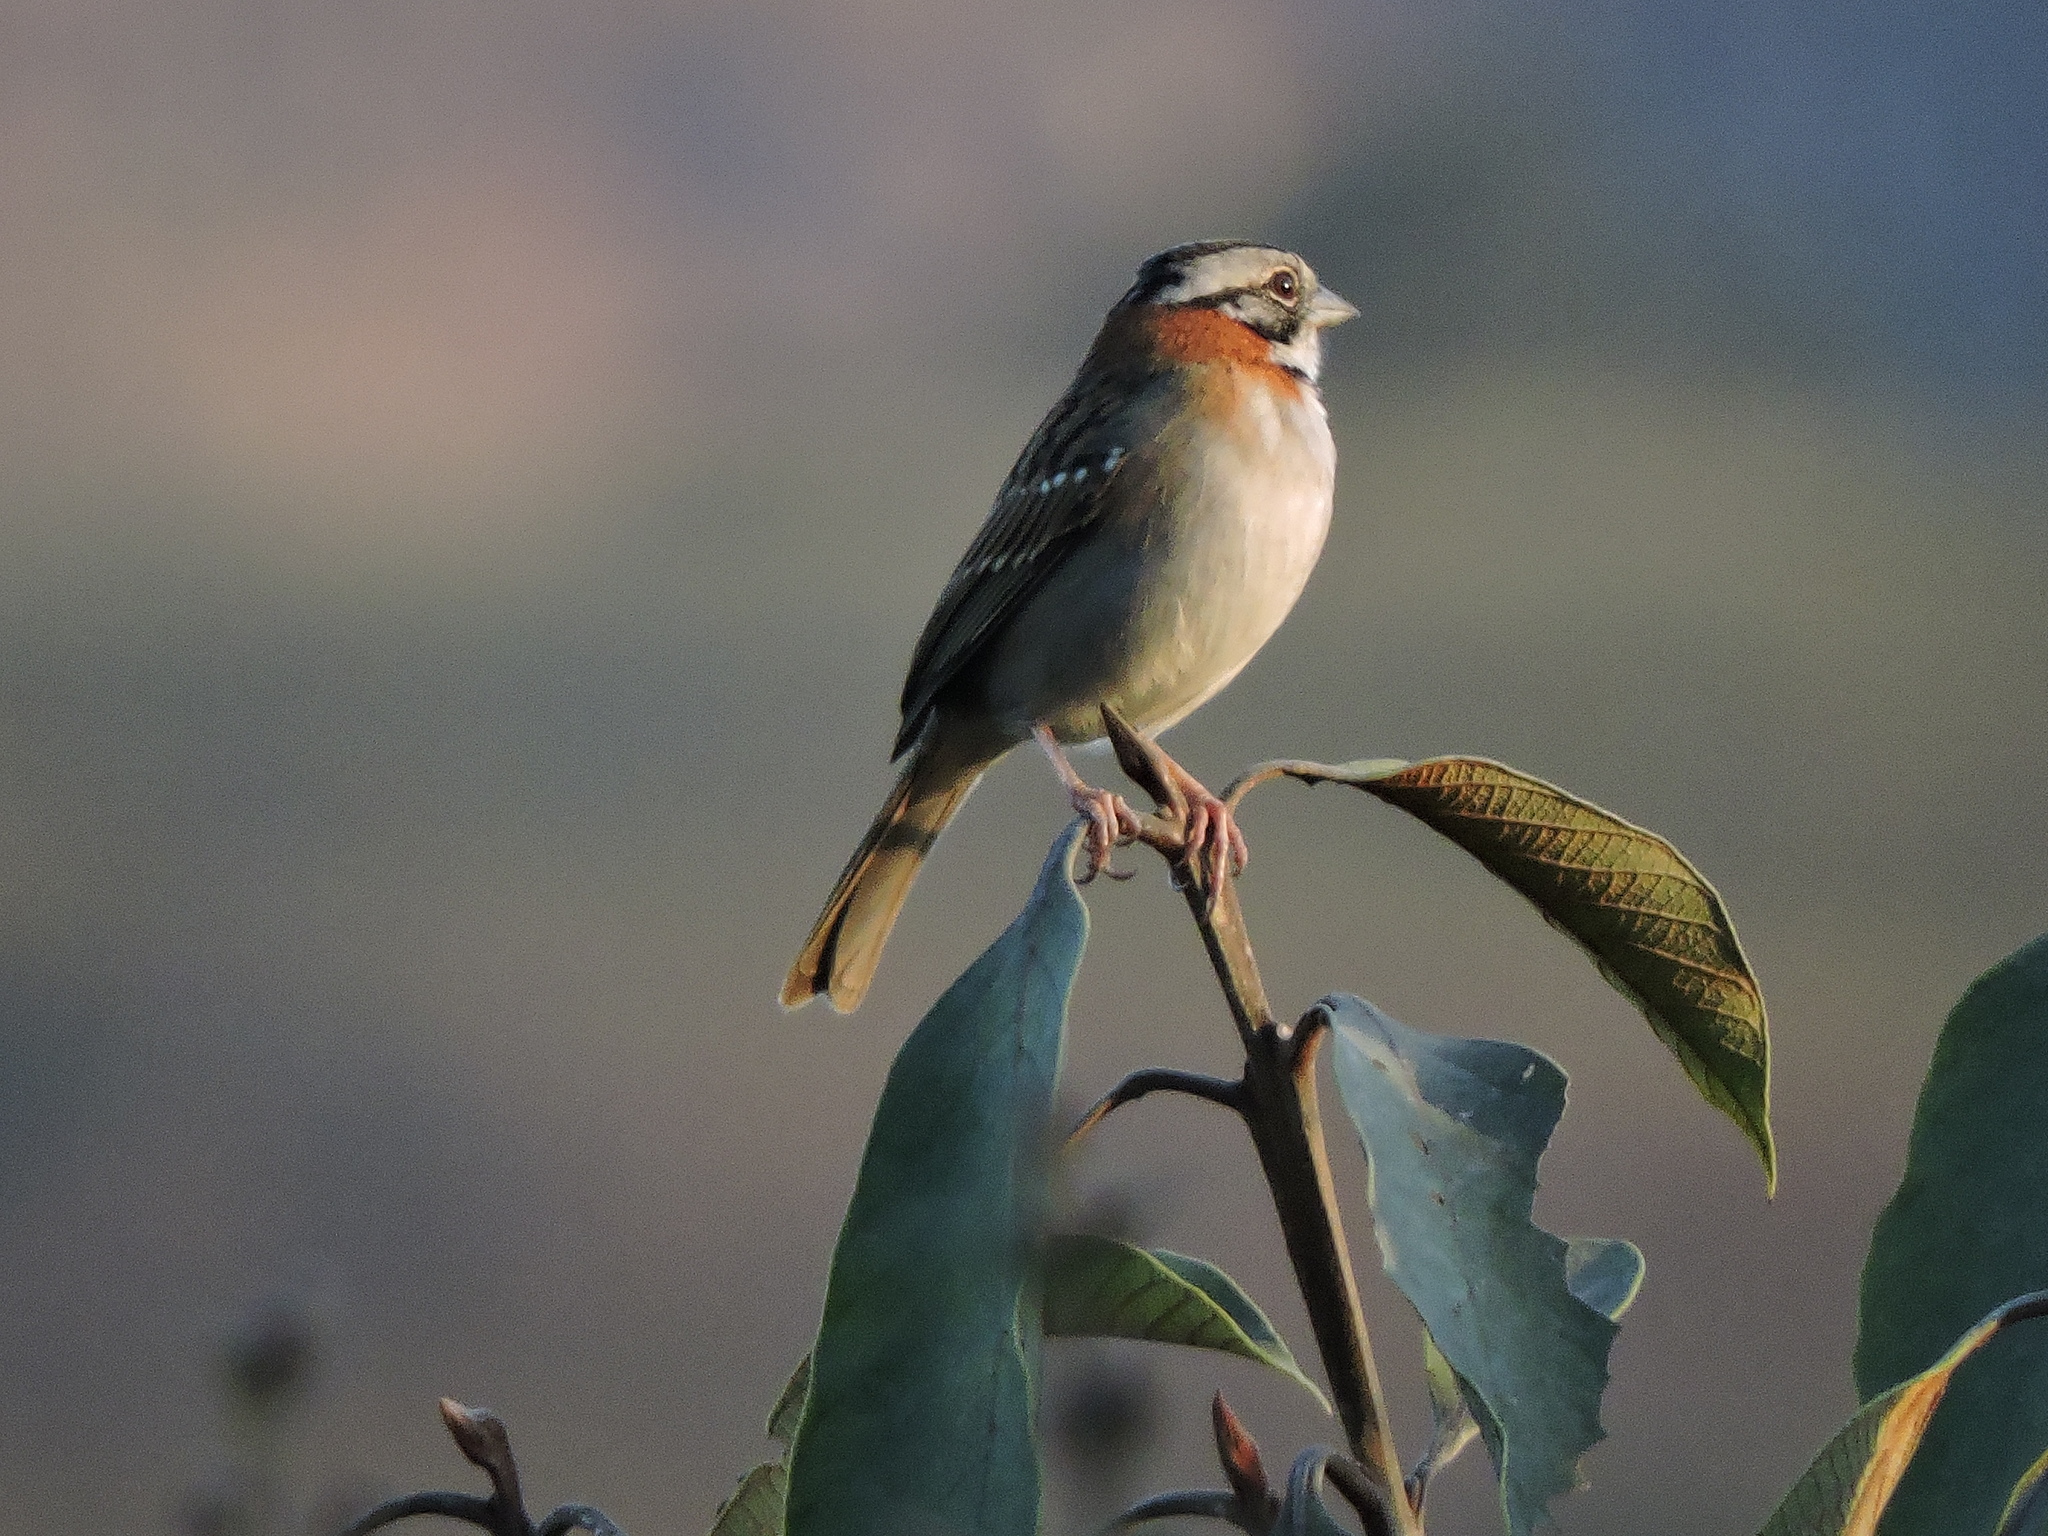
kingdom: Animalia
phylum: Chordata
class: Aves
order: Passeriformes
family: Passerellidae
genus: Zonotrichia
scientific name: Zonotrichia capensis
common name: Rufous-collared sparrow
